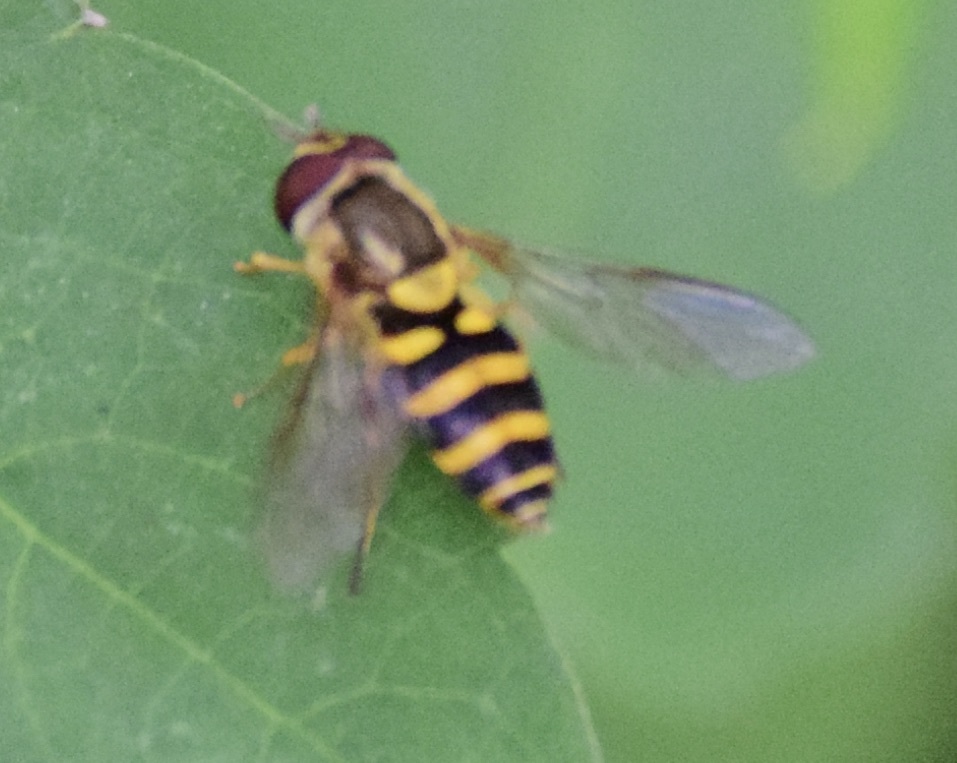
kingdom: Animalia
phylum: Arthropoda
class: Insecta
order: Diptera
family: Syrphidae
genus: Syrphus
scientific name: Syrphus
